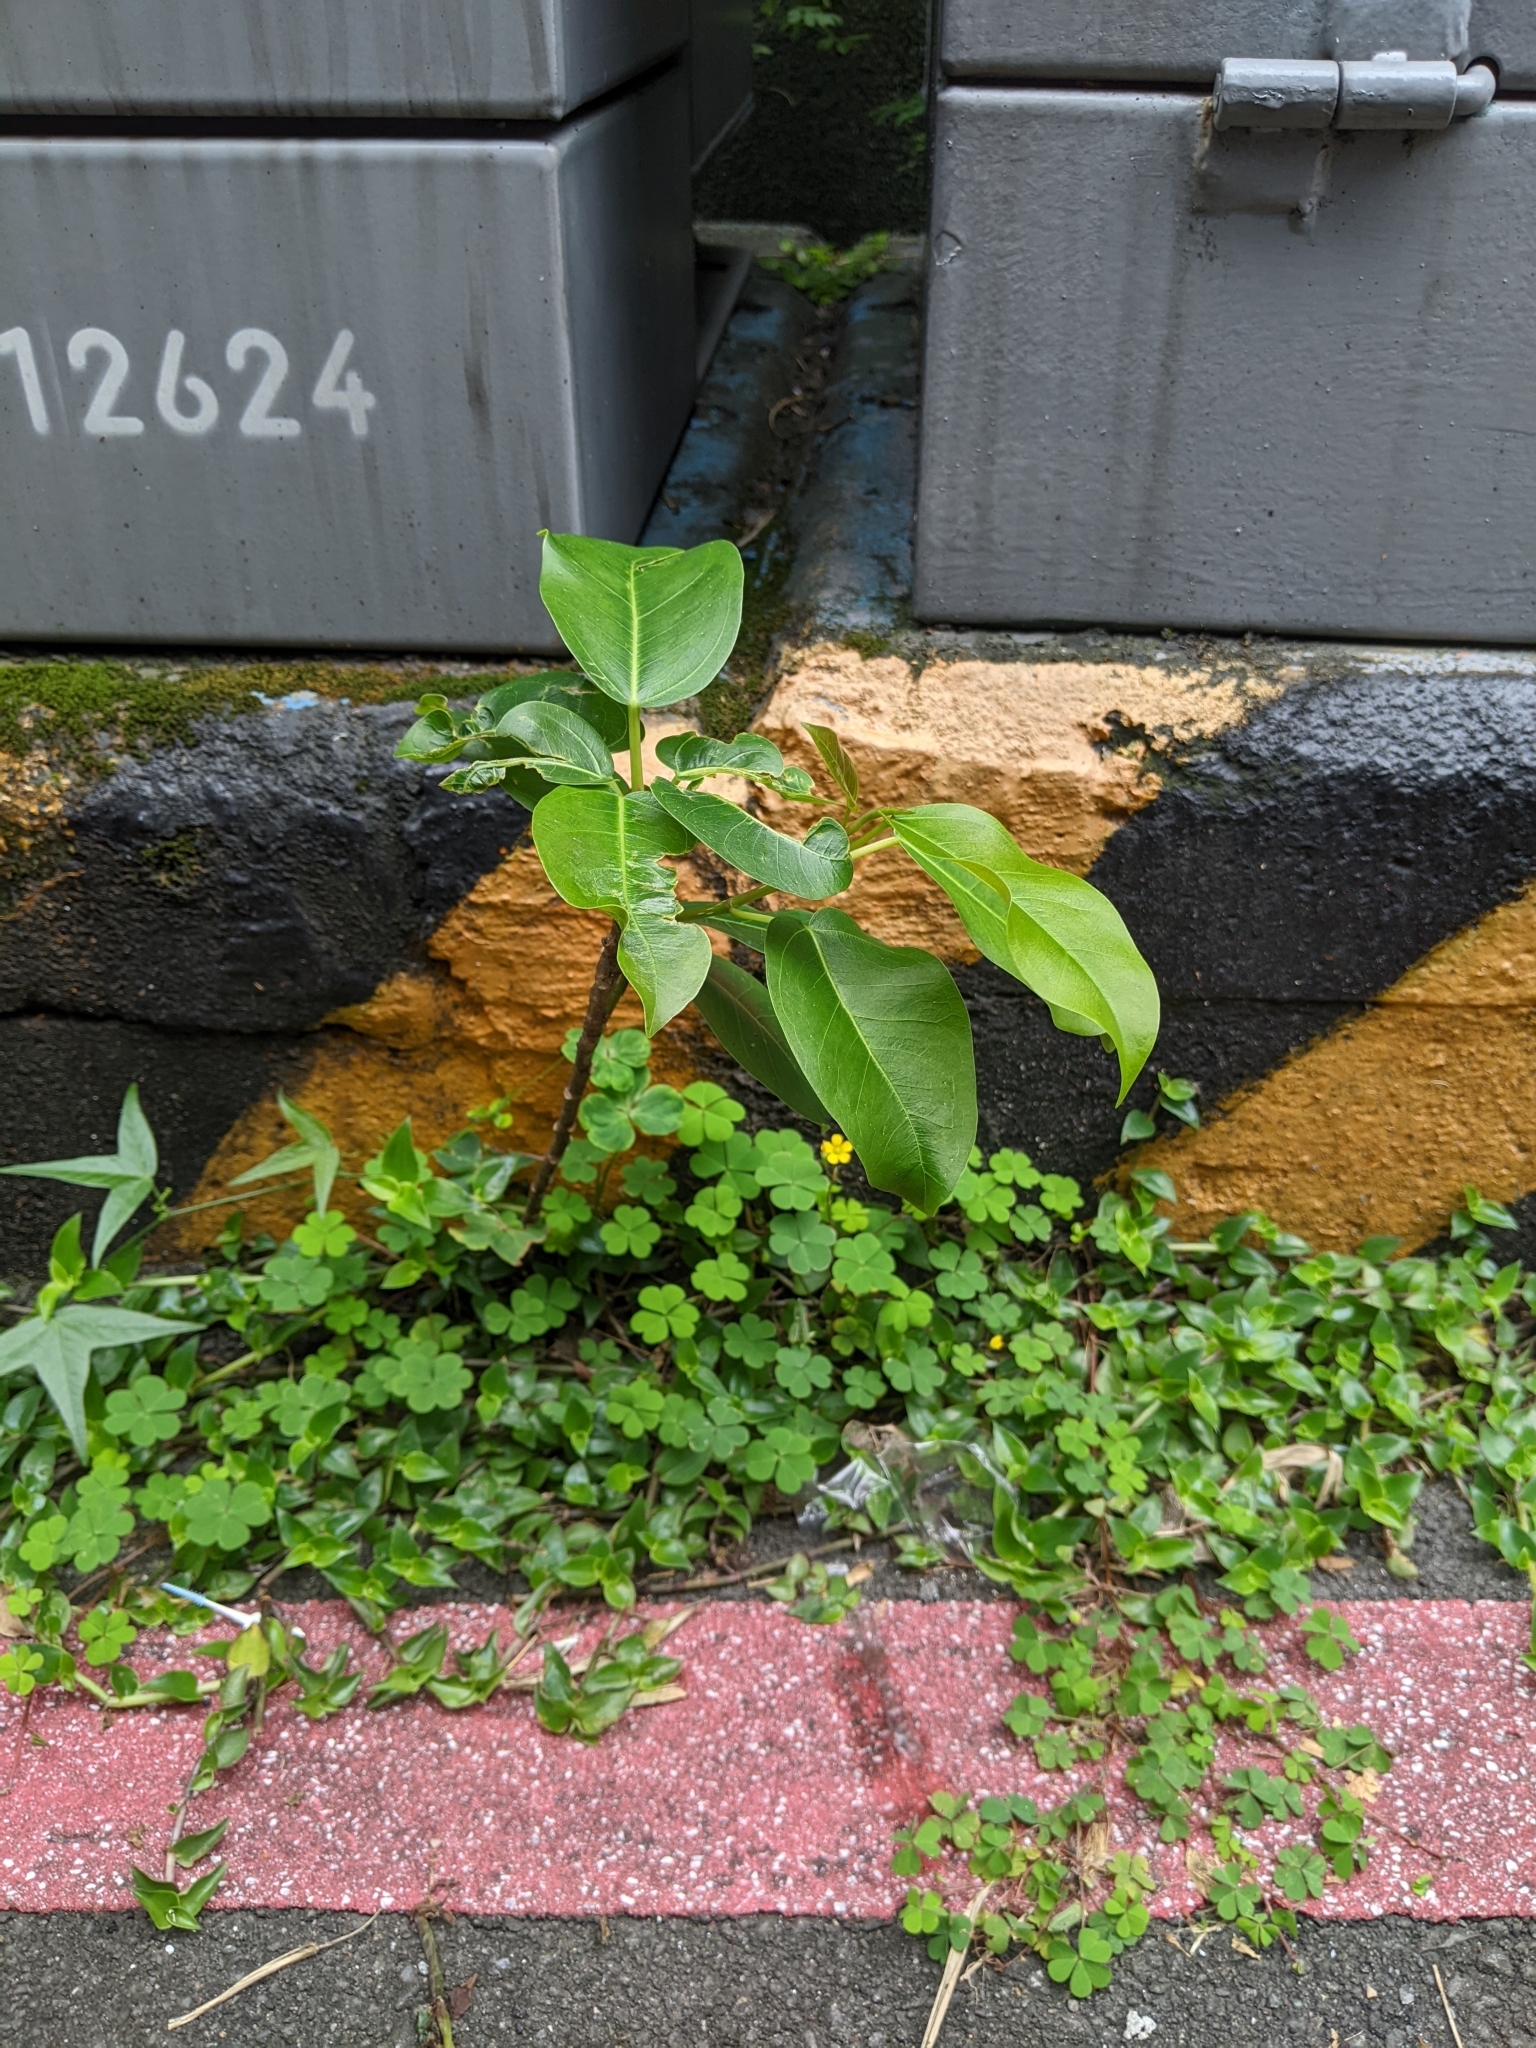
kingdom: Plantae
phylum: Tracheophyta
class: Magnoliopsida
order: Rosales
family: Moraceae
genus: Ficus
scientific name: Ficus subpisocarpa
